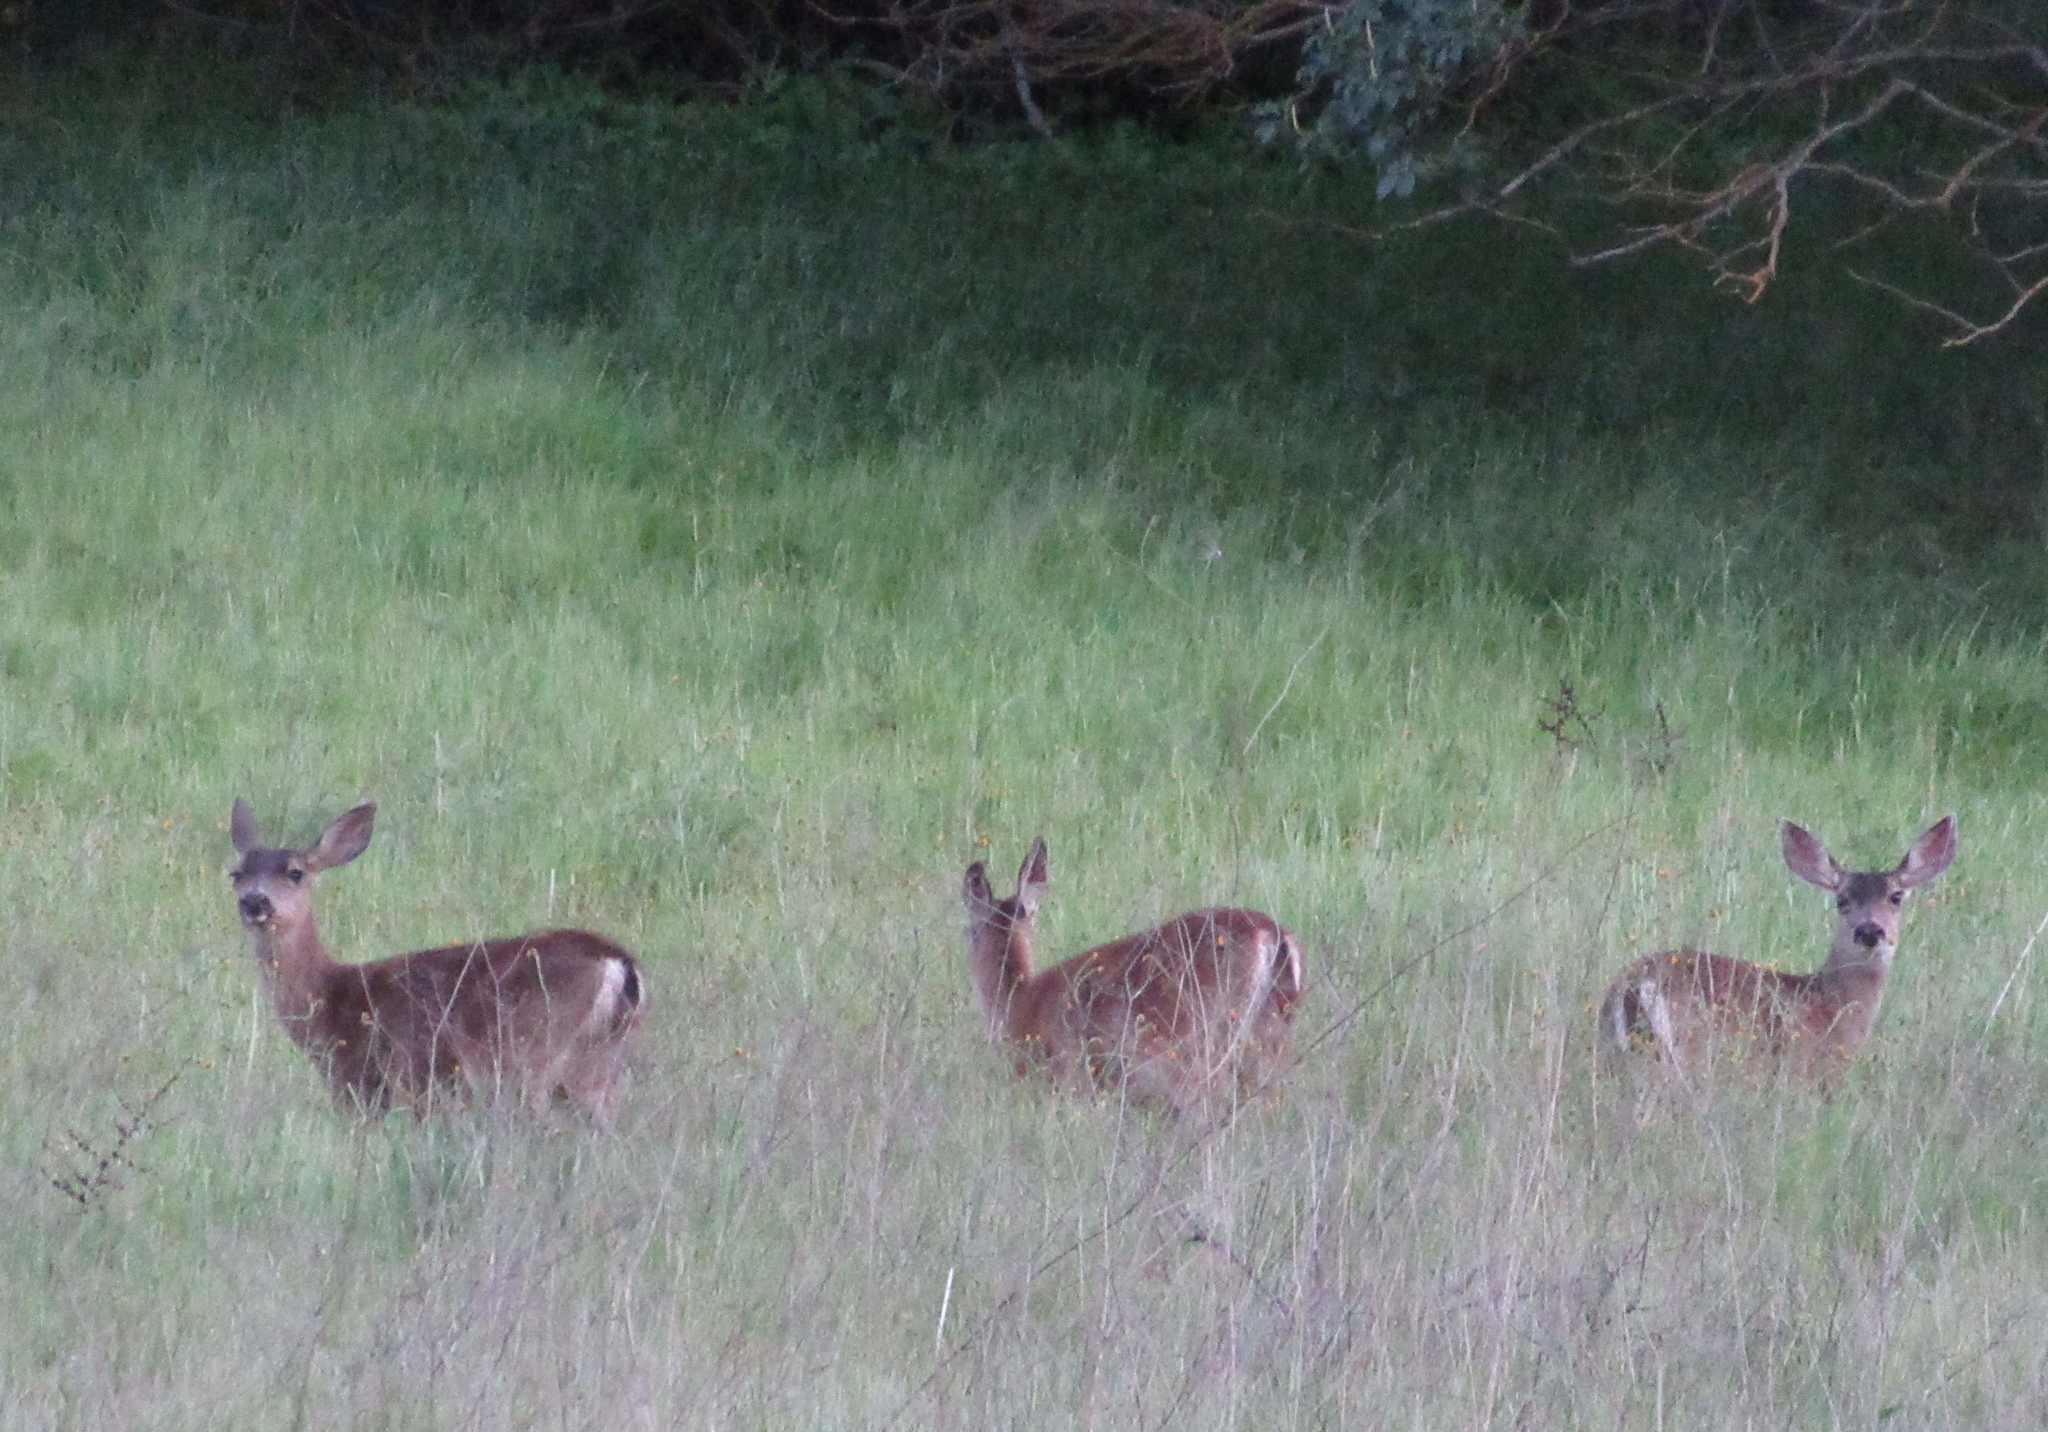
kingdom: Animalia
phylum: Chordata
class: Mammalia
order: Artiodactyla
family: Cervidae
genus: Odocoileus
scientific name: Odocoileus hemionus
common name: Mule deer
